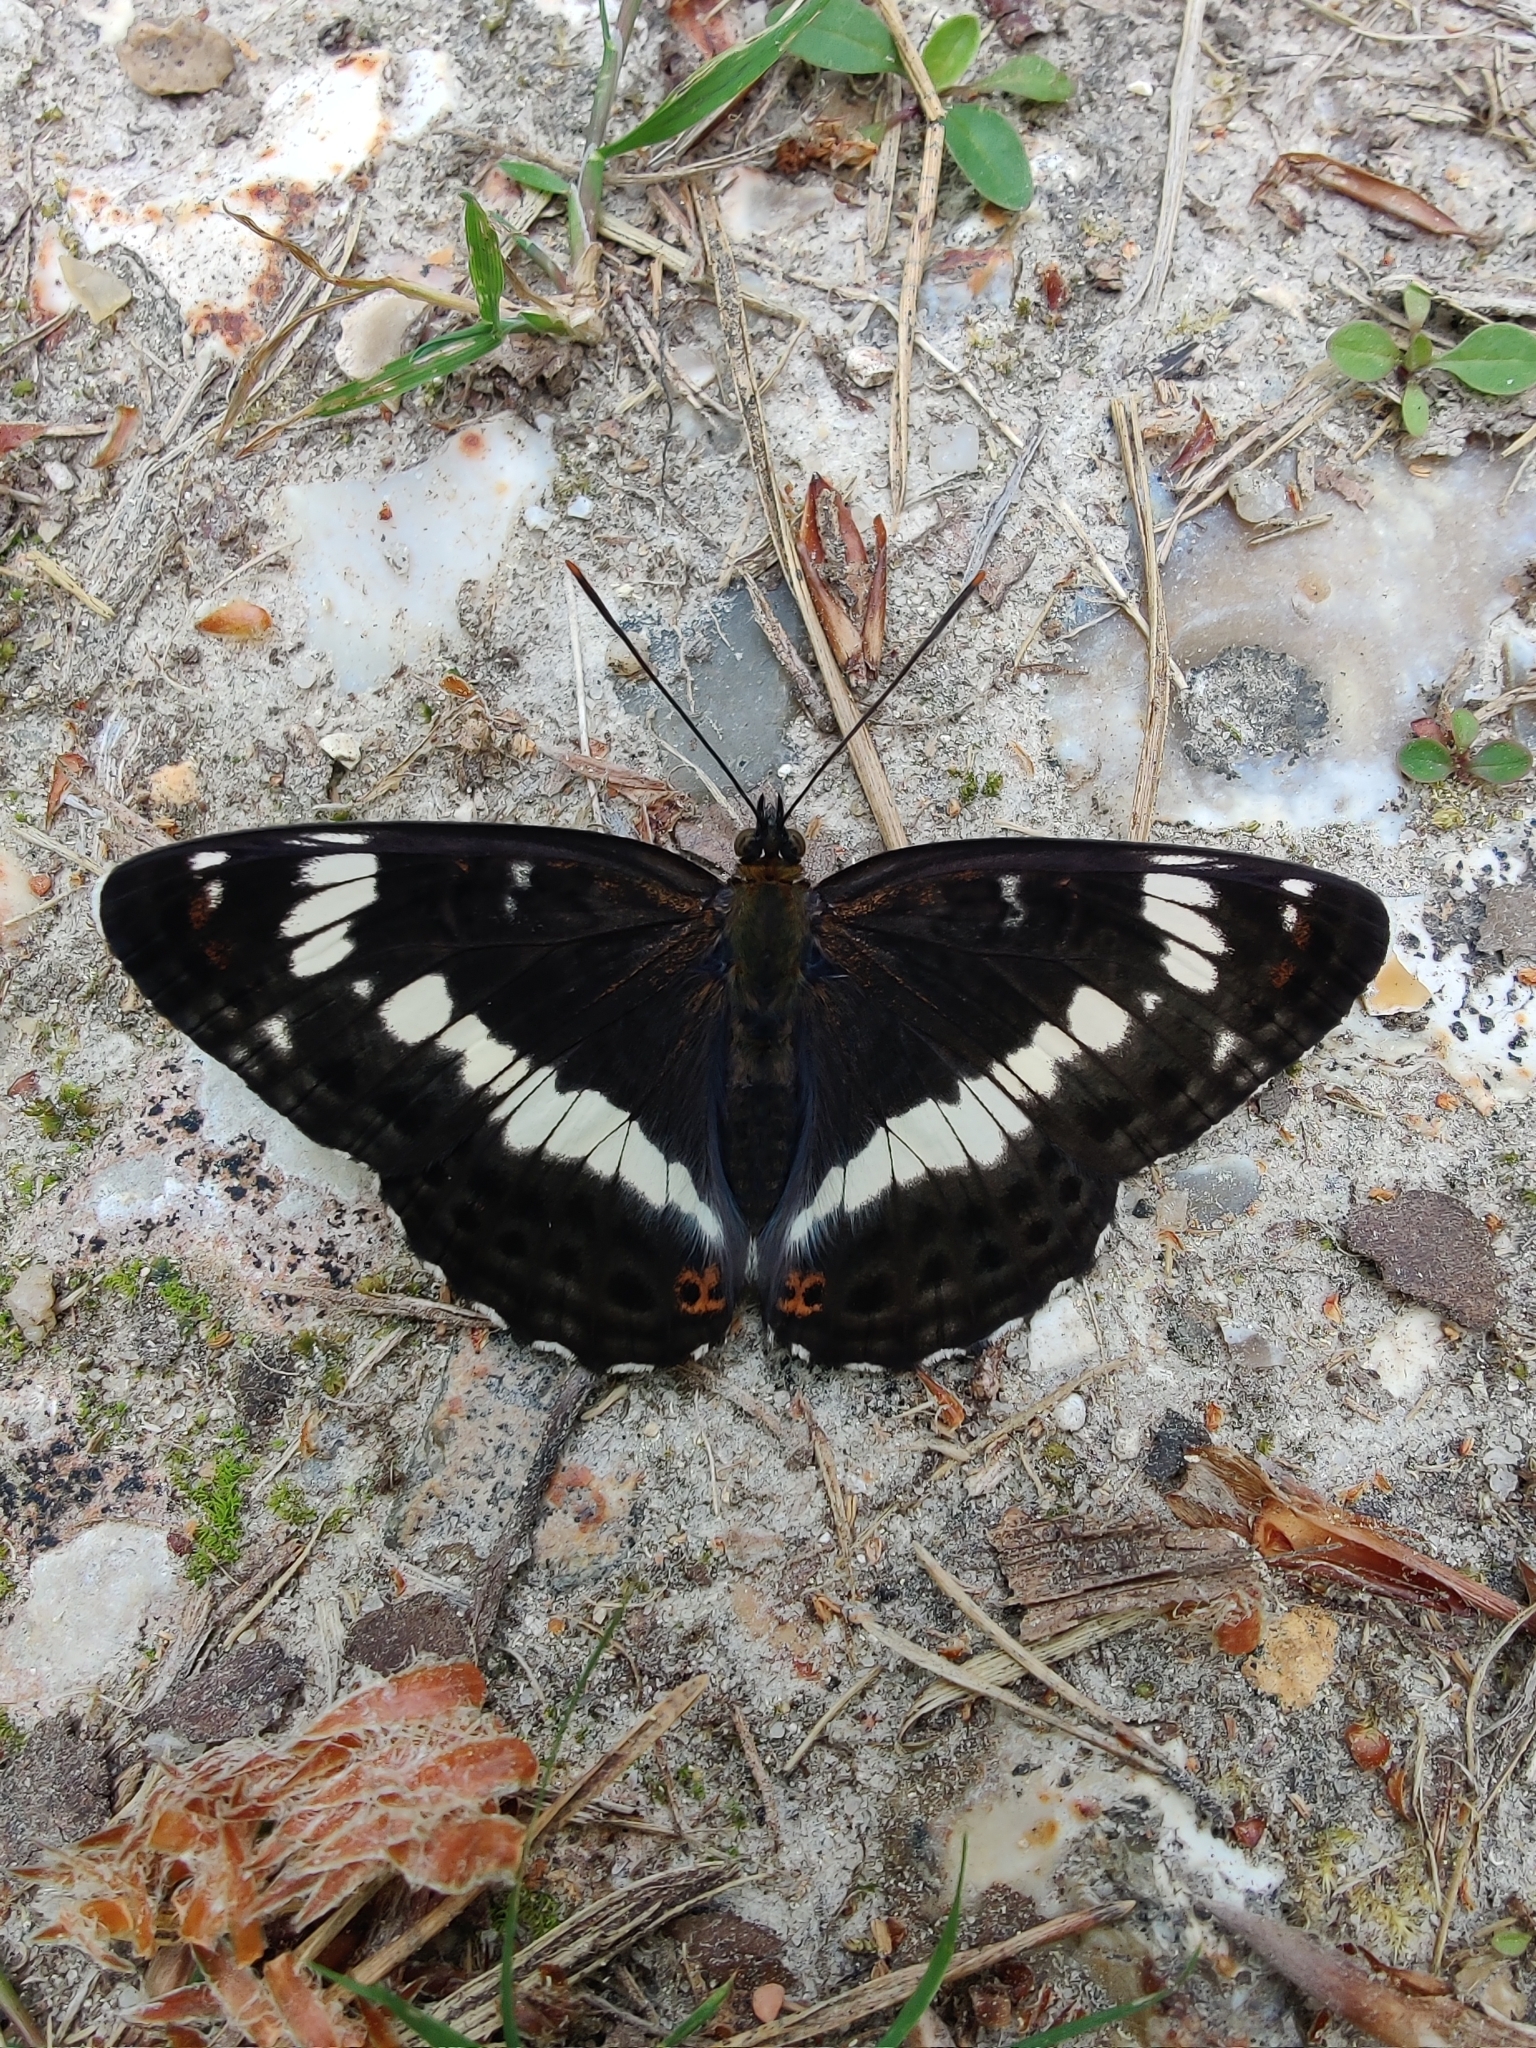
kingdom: Animalia
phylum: Arthropoda
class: Insecta
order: Lepidoptera
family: Nymphalidae
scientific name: Nymphalidae
